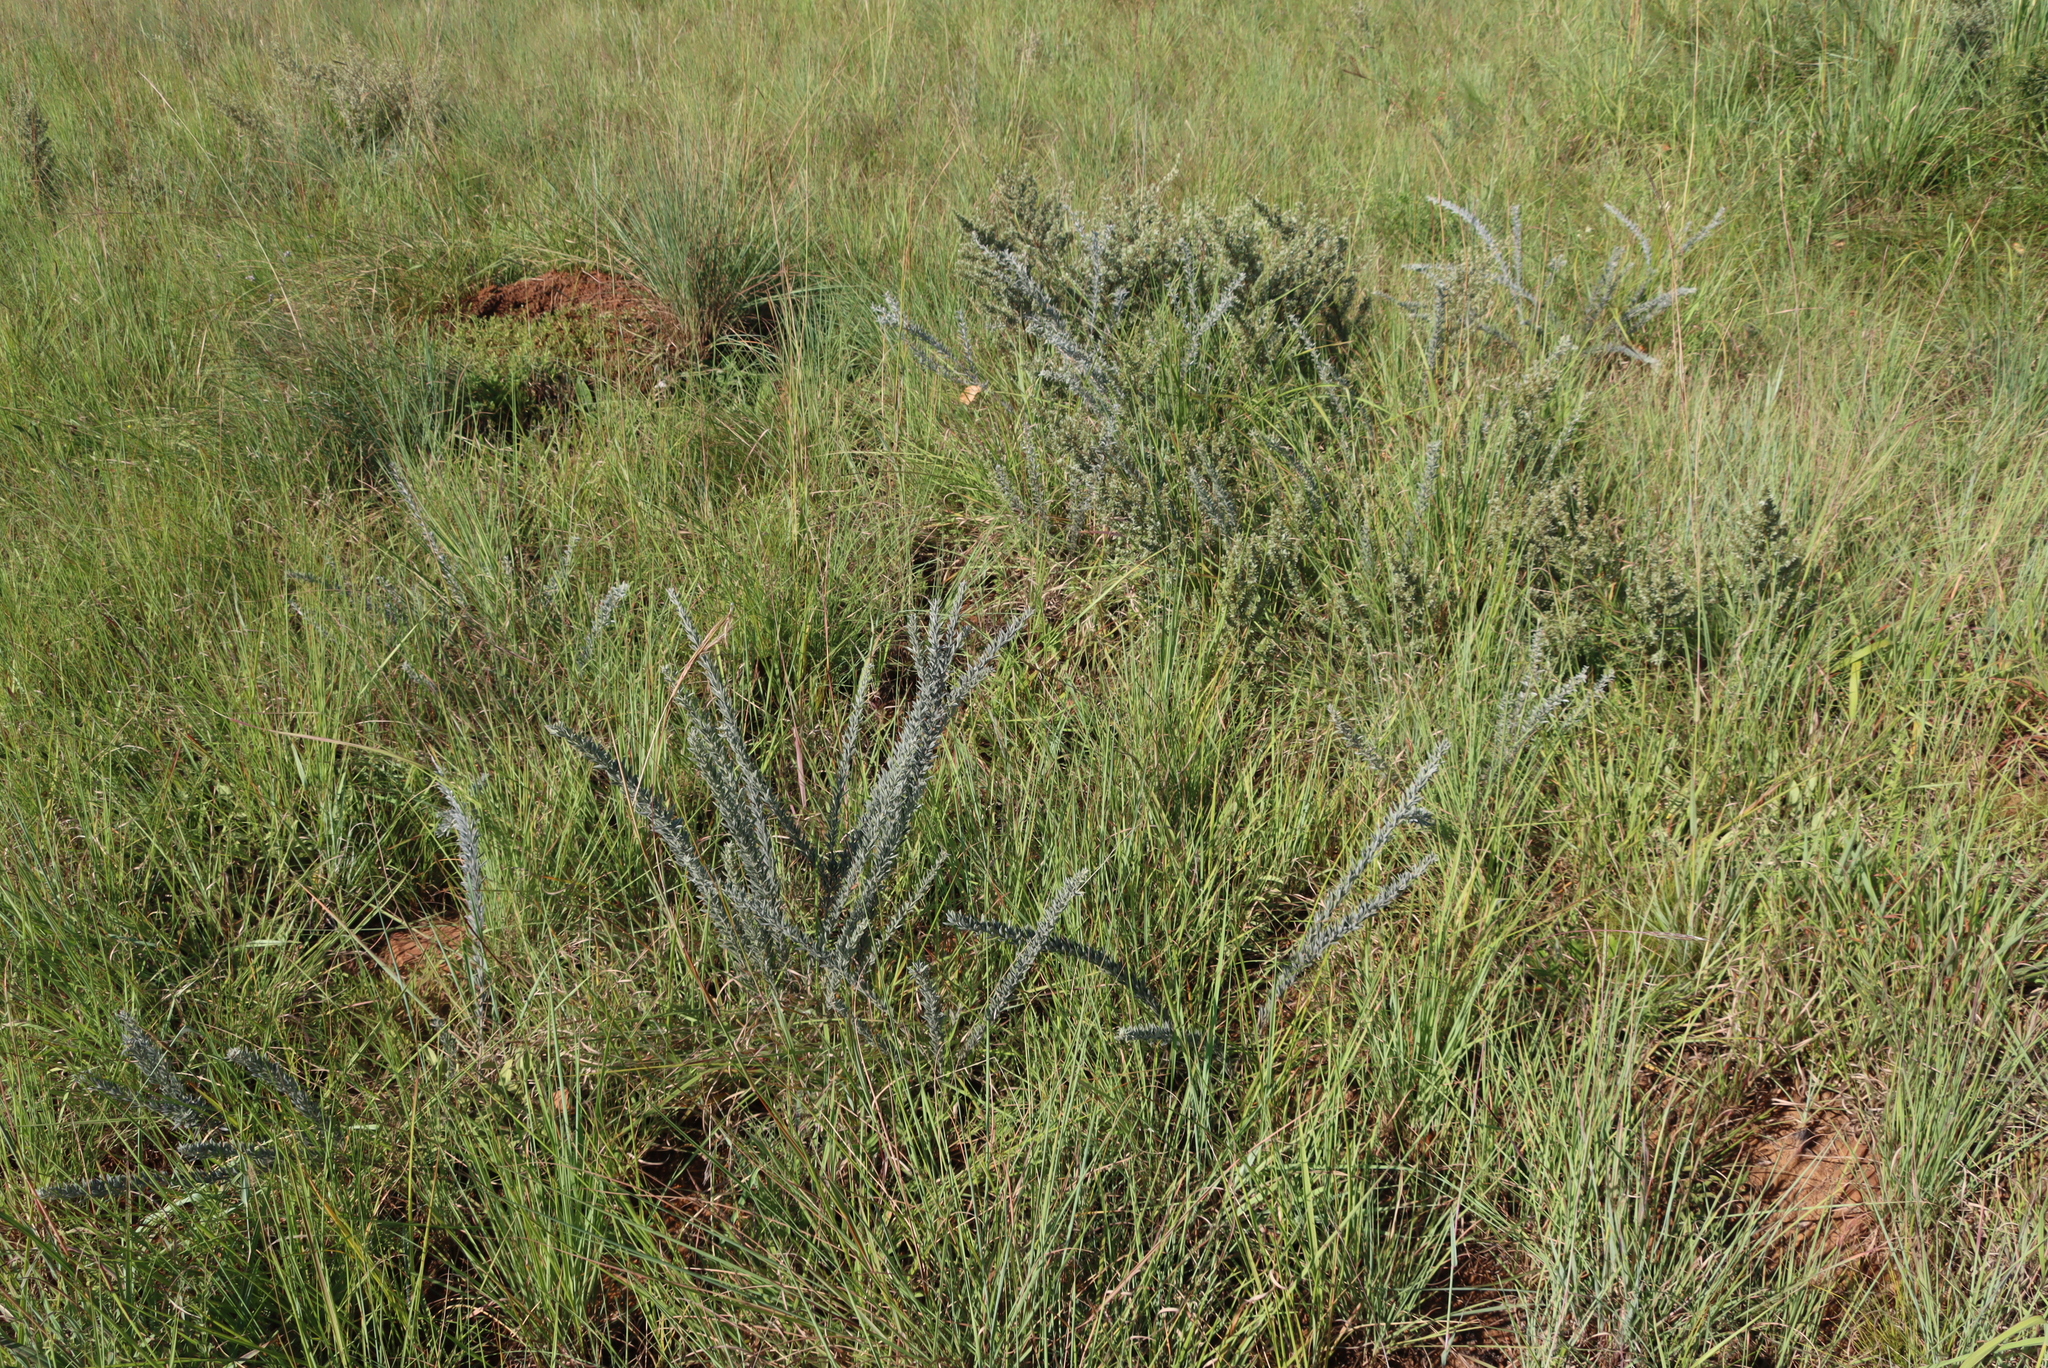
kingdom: Plantae
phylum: Tracheophyta
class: Magnoliopsida
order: Fabales
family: Fabaceae
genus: Pearsonia
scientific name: Pearsonia sessilifolia
